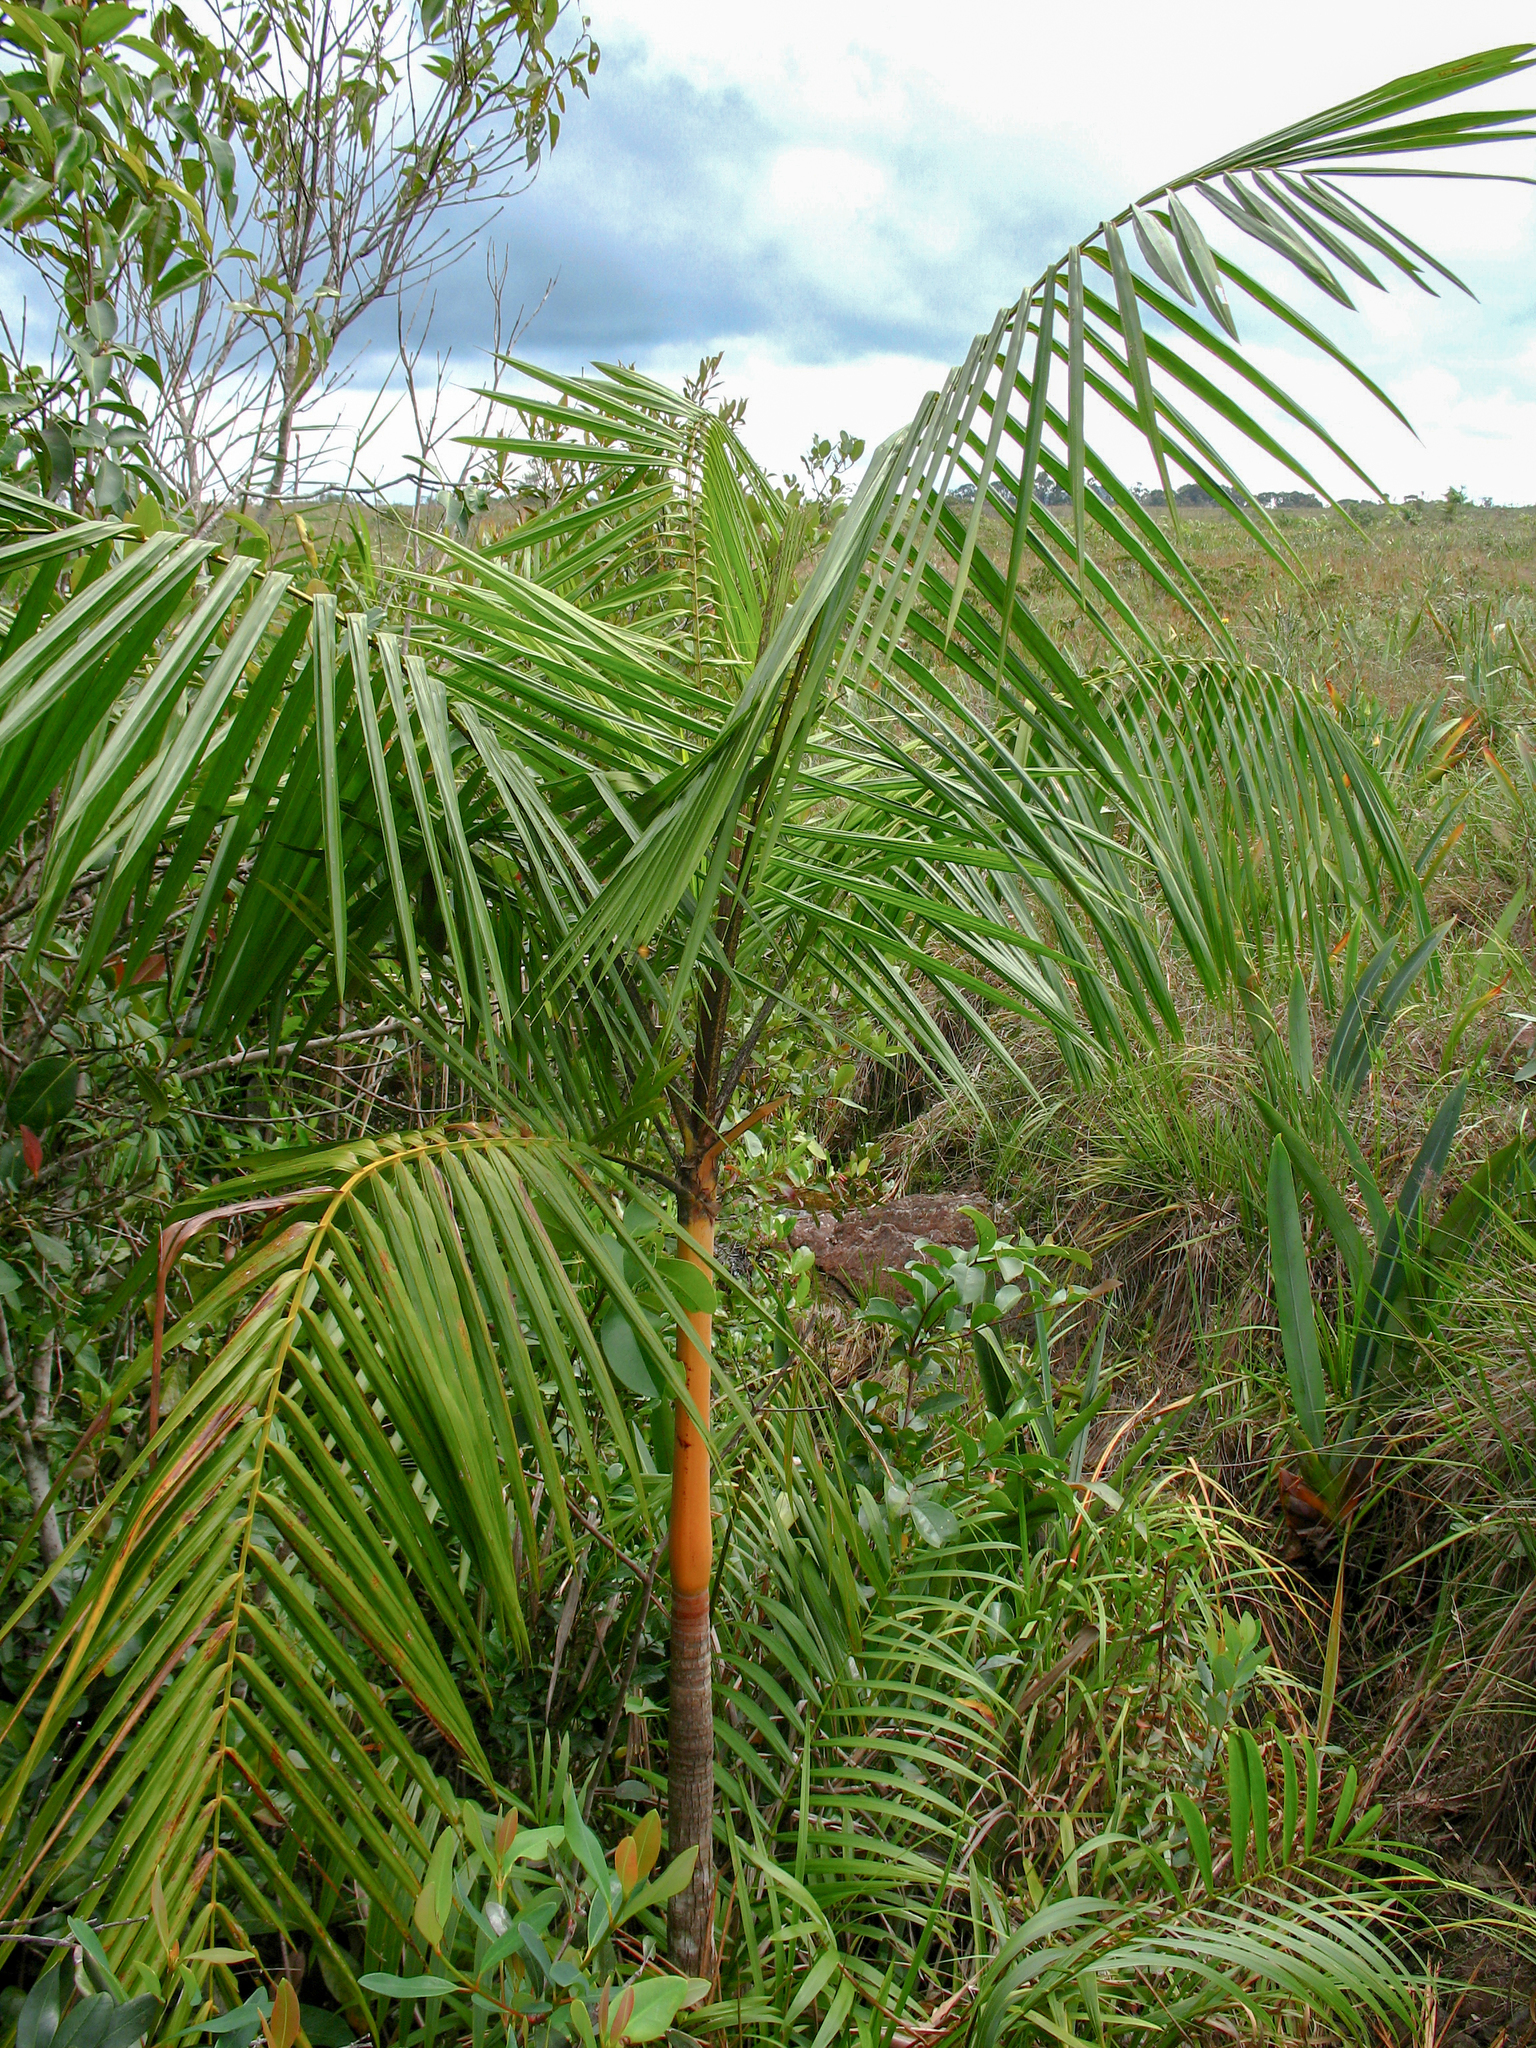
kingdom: Plantae
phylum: Tracheophyta
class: Liliopsida
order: Arecales
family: Arecaceae
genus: Euterpe
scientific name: Euterpe catinga
